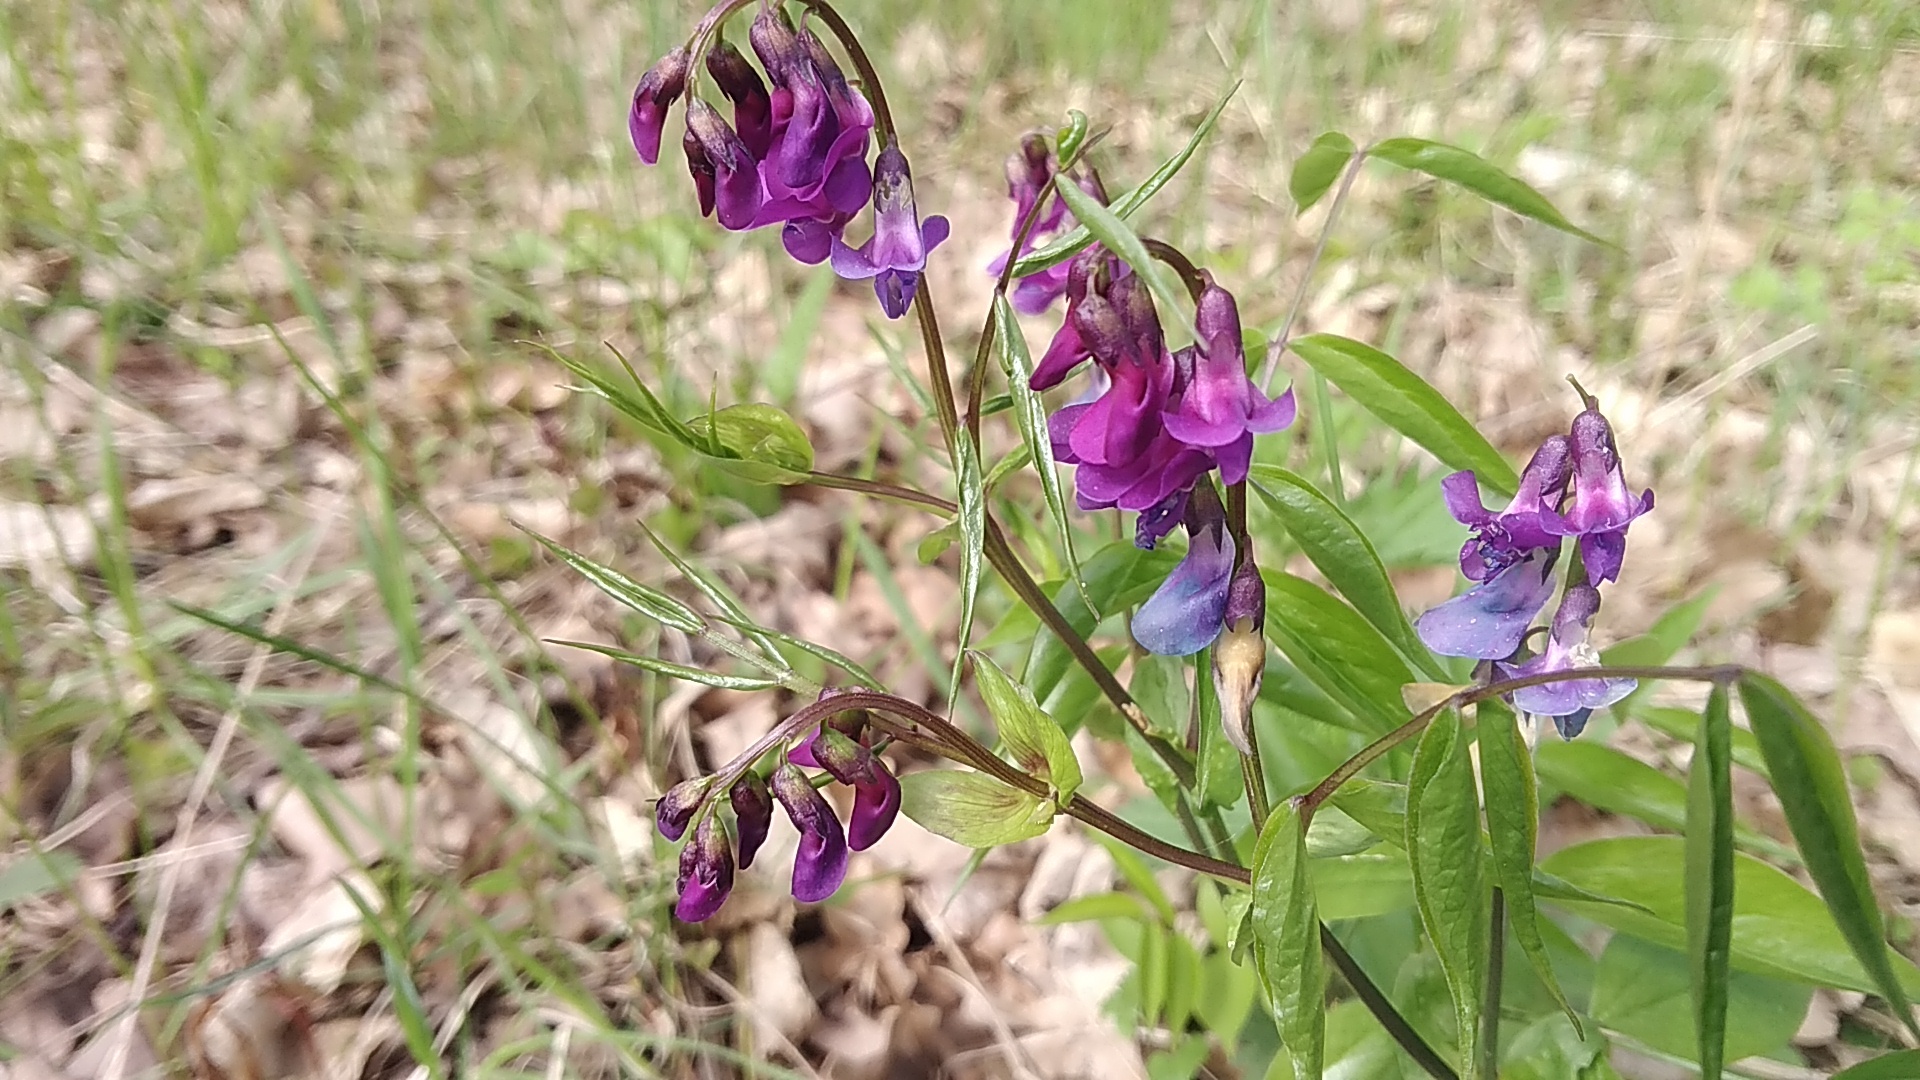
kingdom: Plantae
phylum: Tracheophyta
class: Magnoliopsida
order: Fabales
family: Fabaceae
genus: Lathyrus
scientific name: Lathyrus vernus
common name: Spring pea
